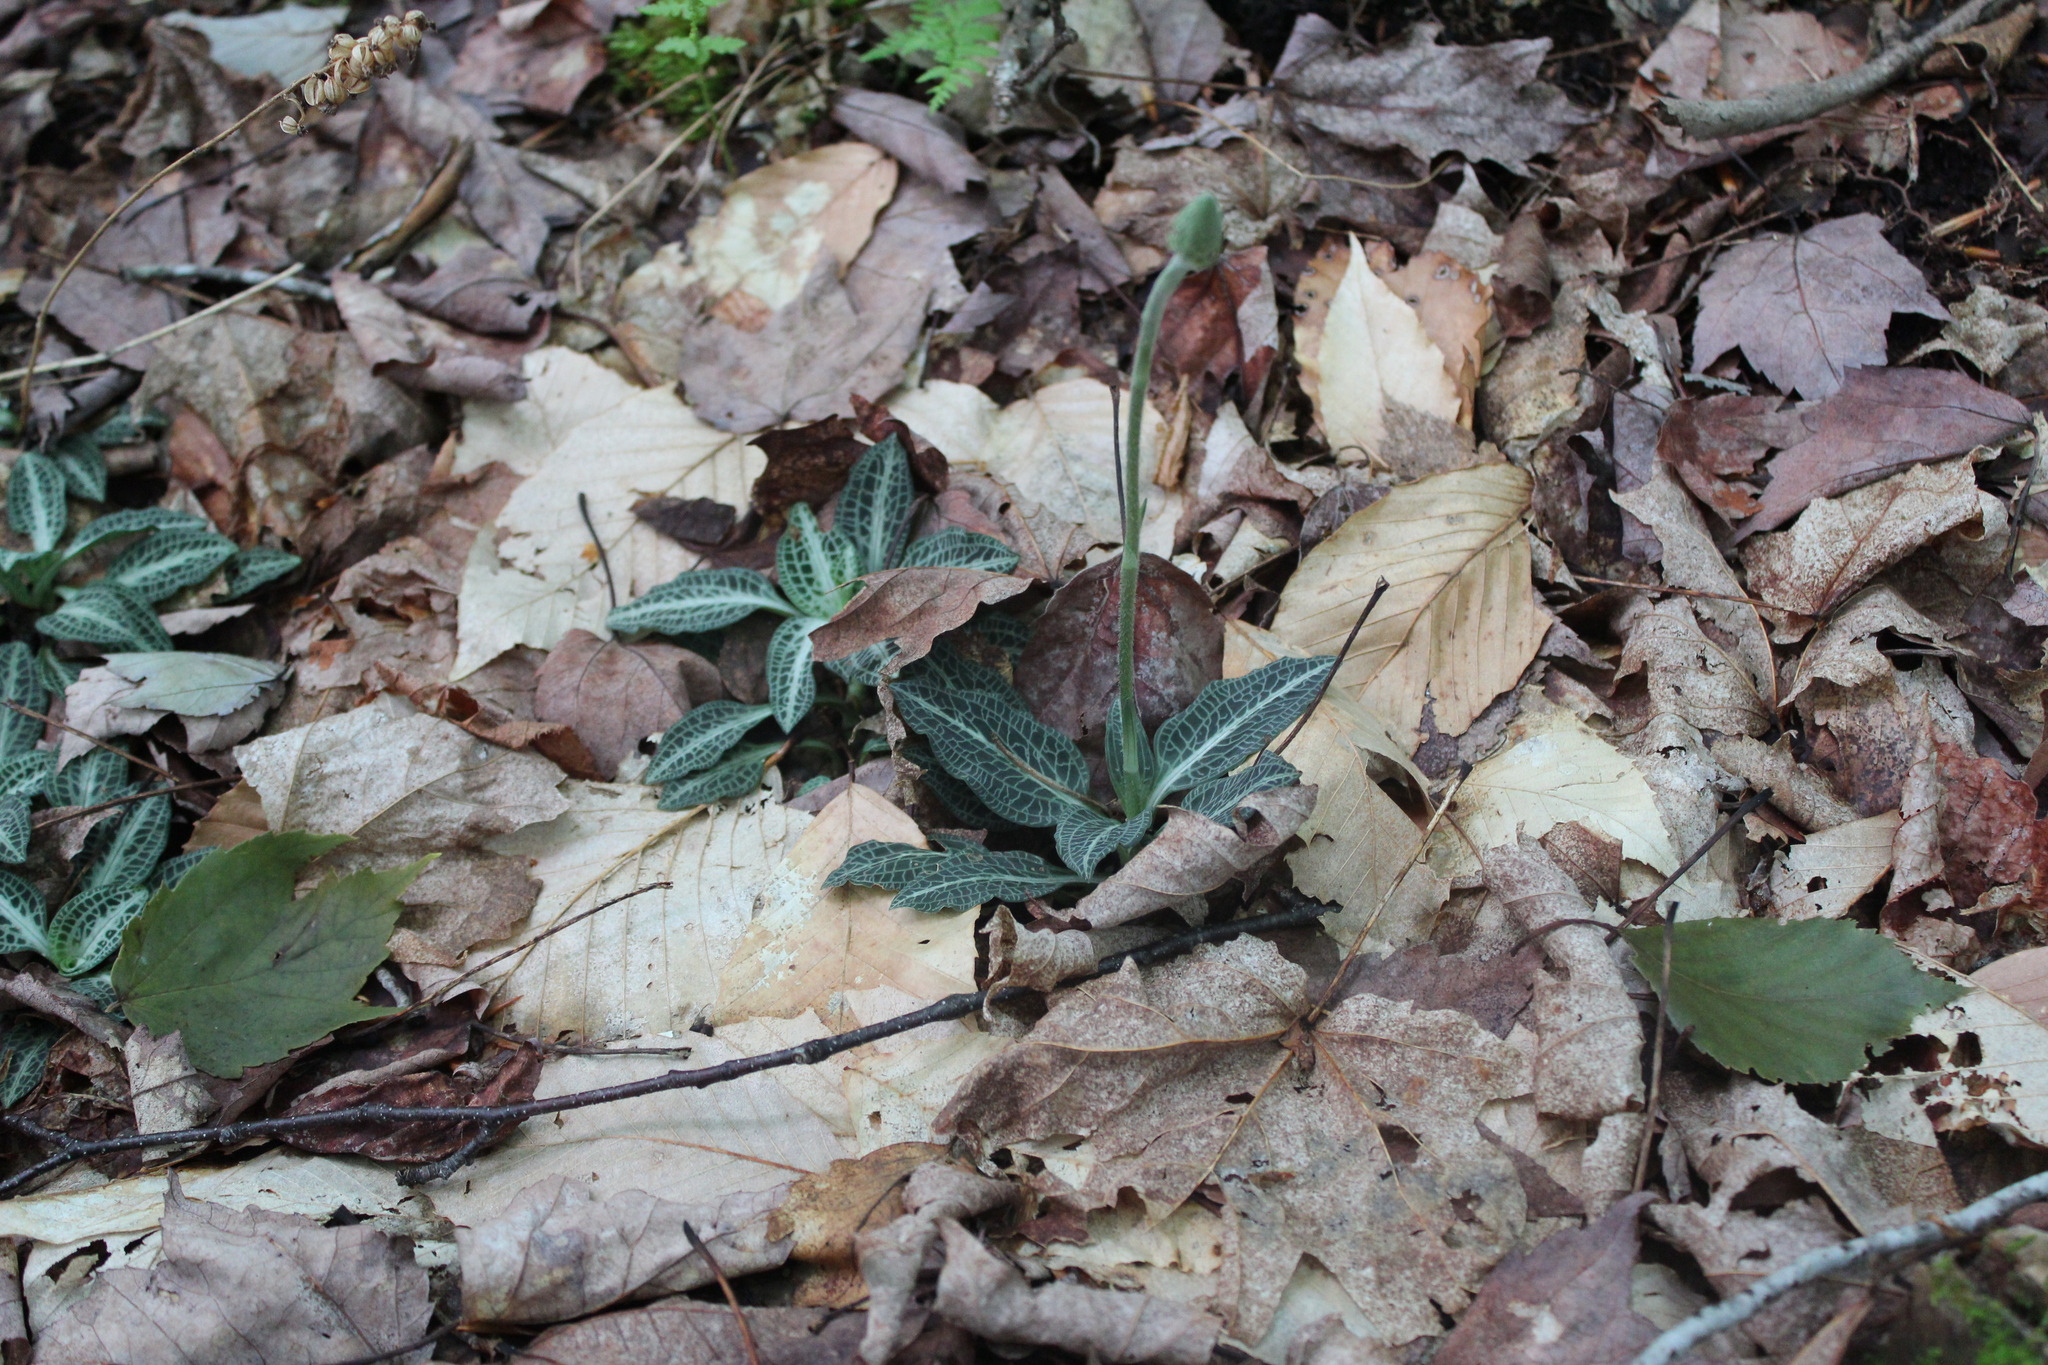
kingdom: Plantae
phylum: Tracheophyta
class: Liliopsida
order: Asparagales
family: Orchidaceae
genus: Goodyera
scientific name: Goodyera pubescens
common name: Downy rattlesnake-plantain
